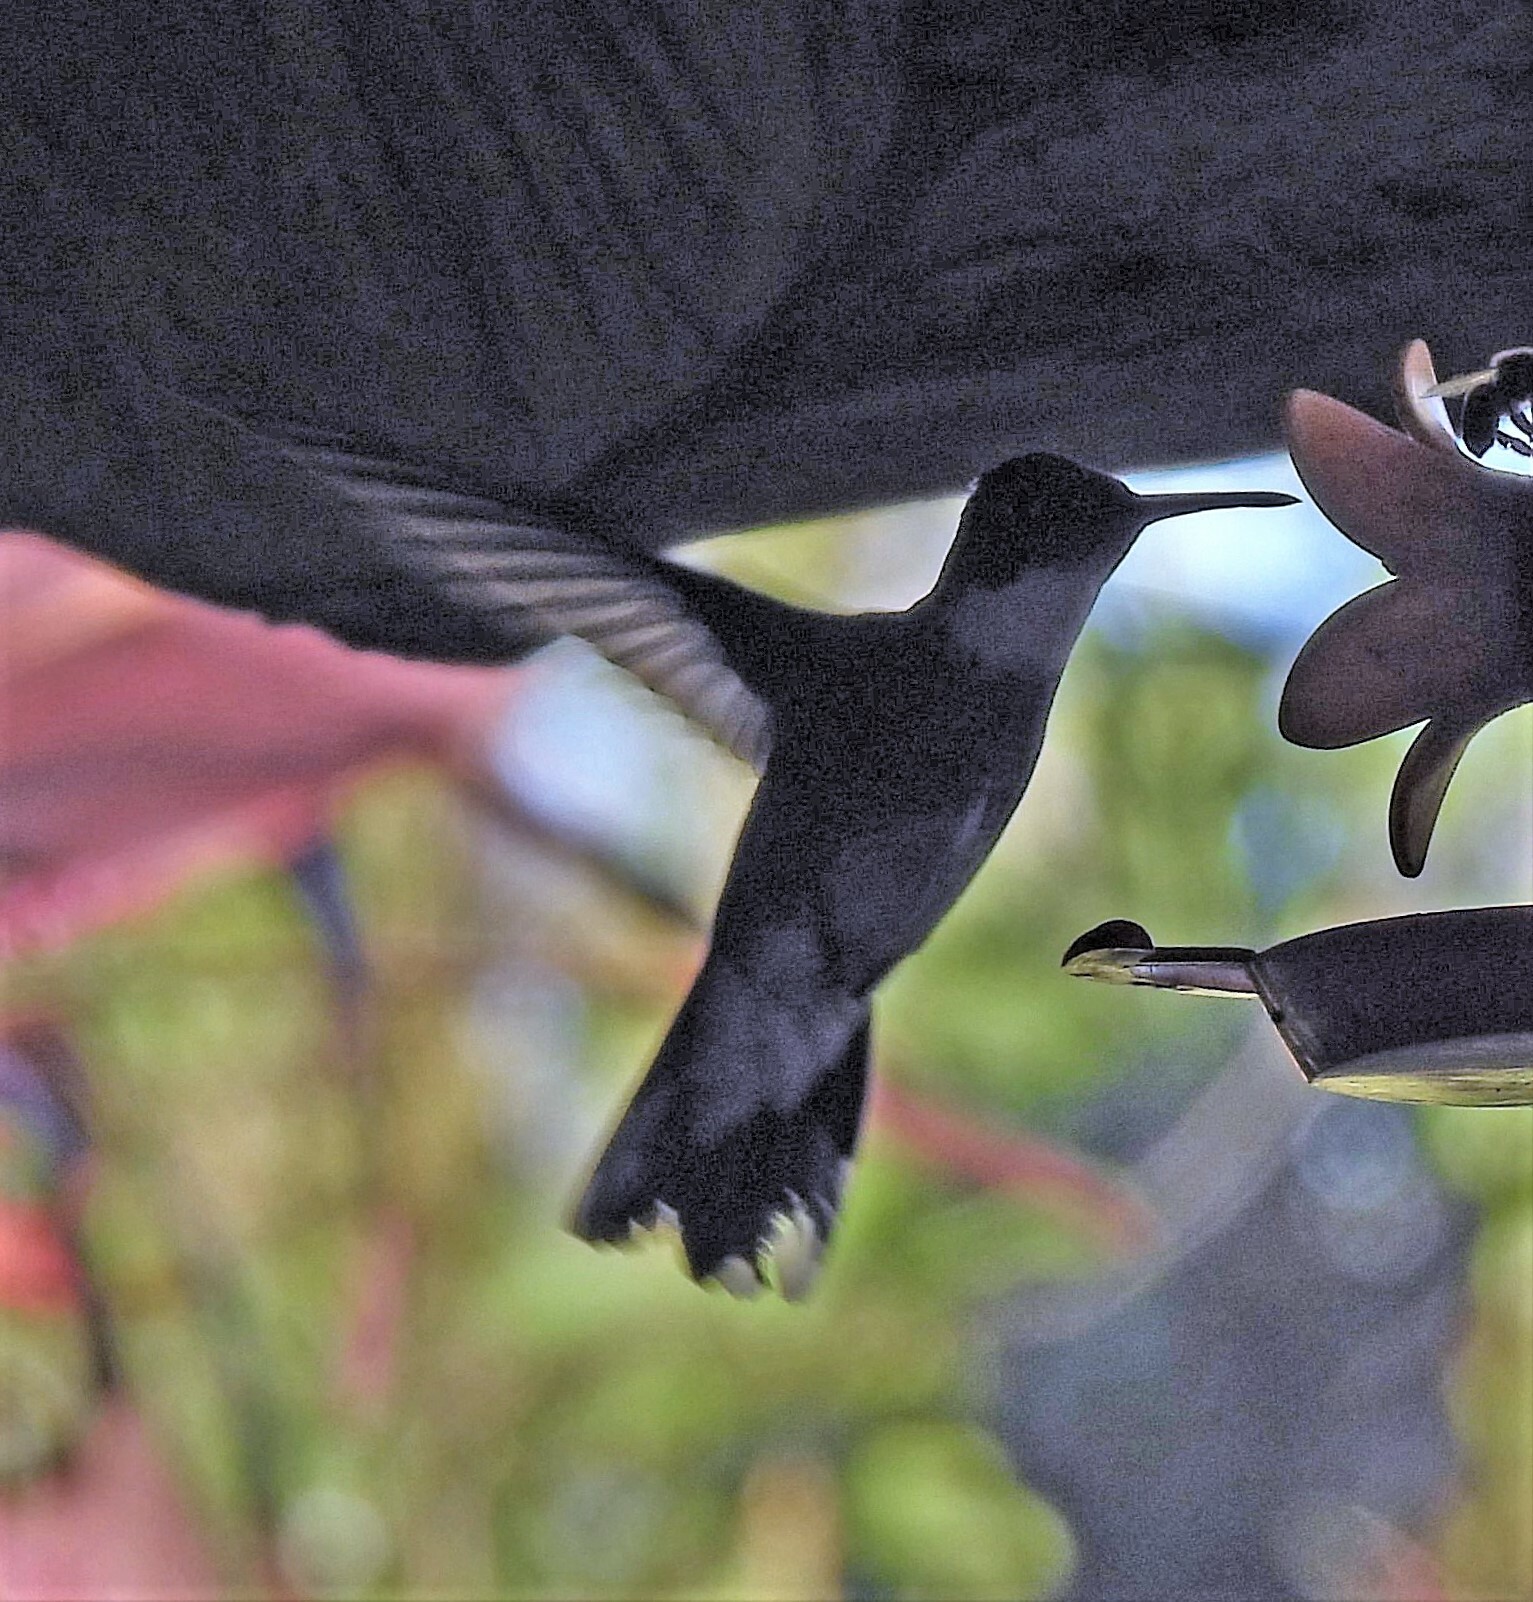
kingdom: Animalia
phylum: Chordata
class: Aves
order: Apodiformes
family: Trochilidae
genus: Leucochloris
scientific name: Leucochloris albicollis
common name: White-throated hummingbird
